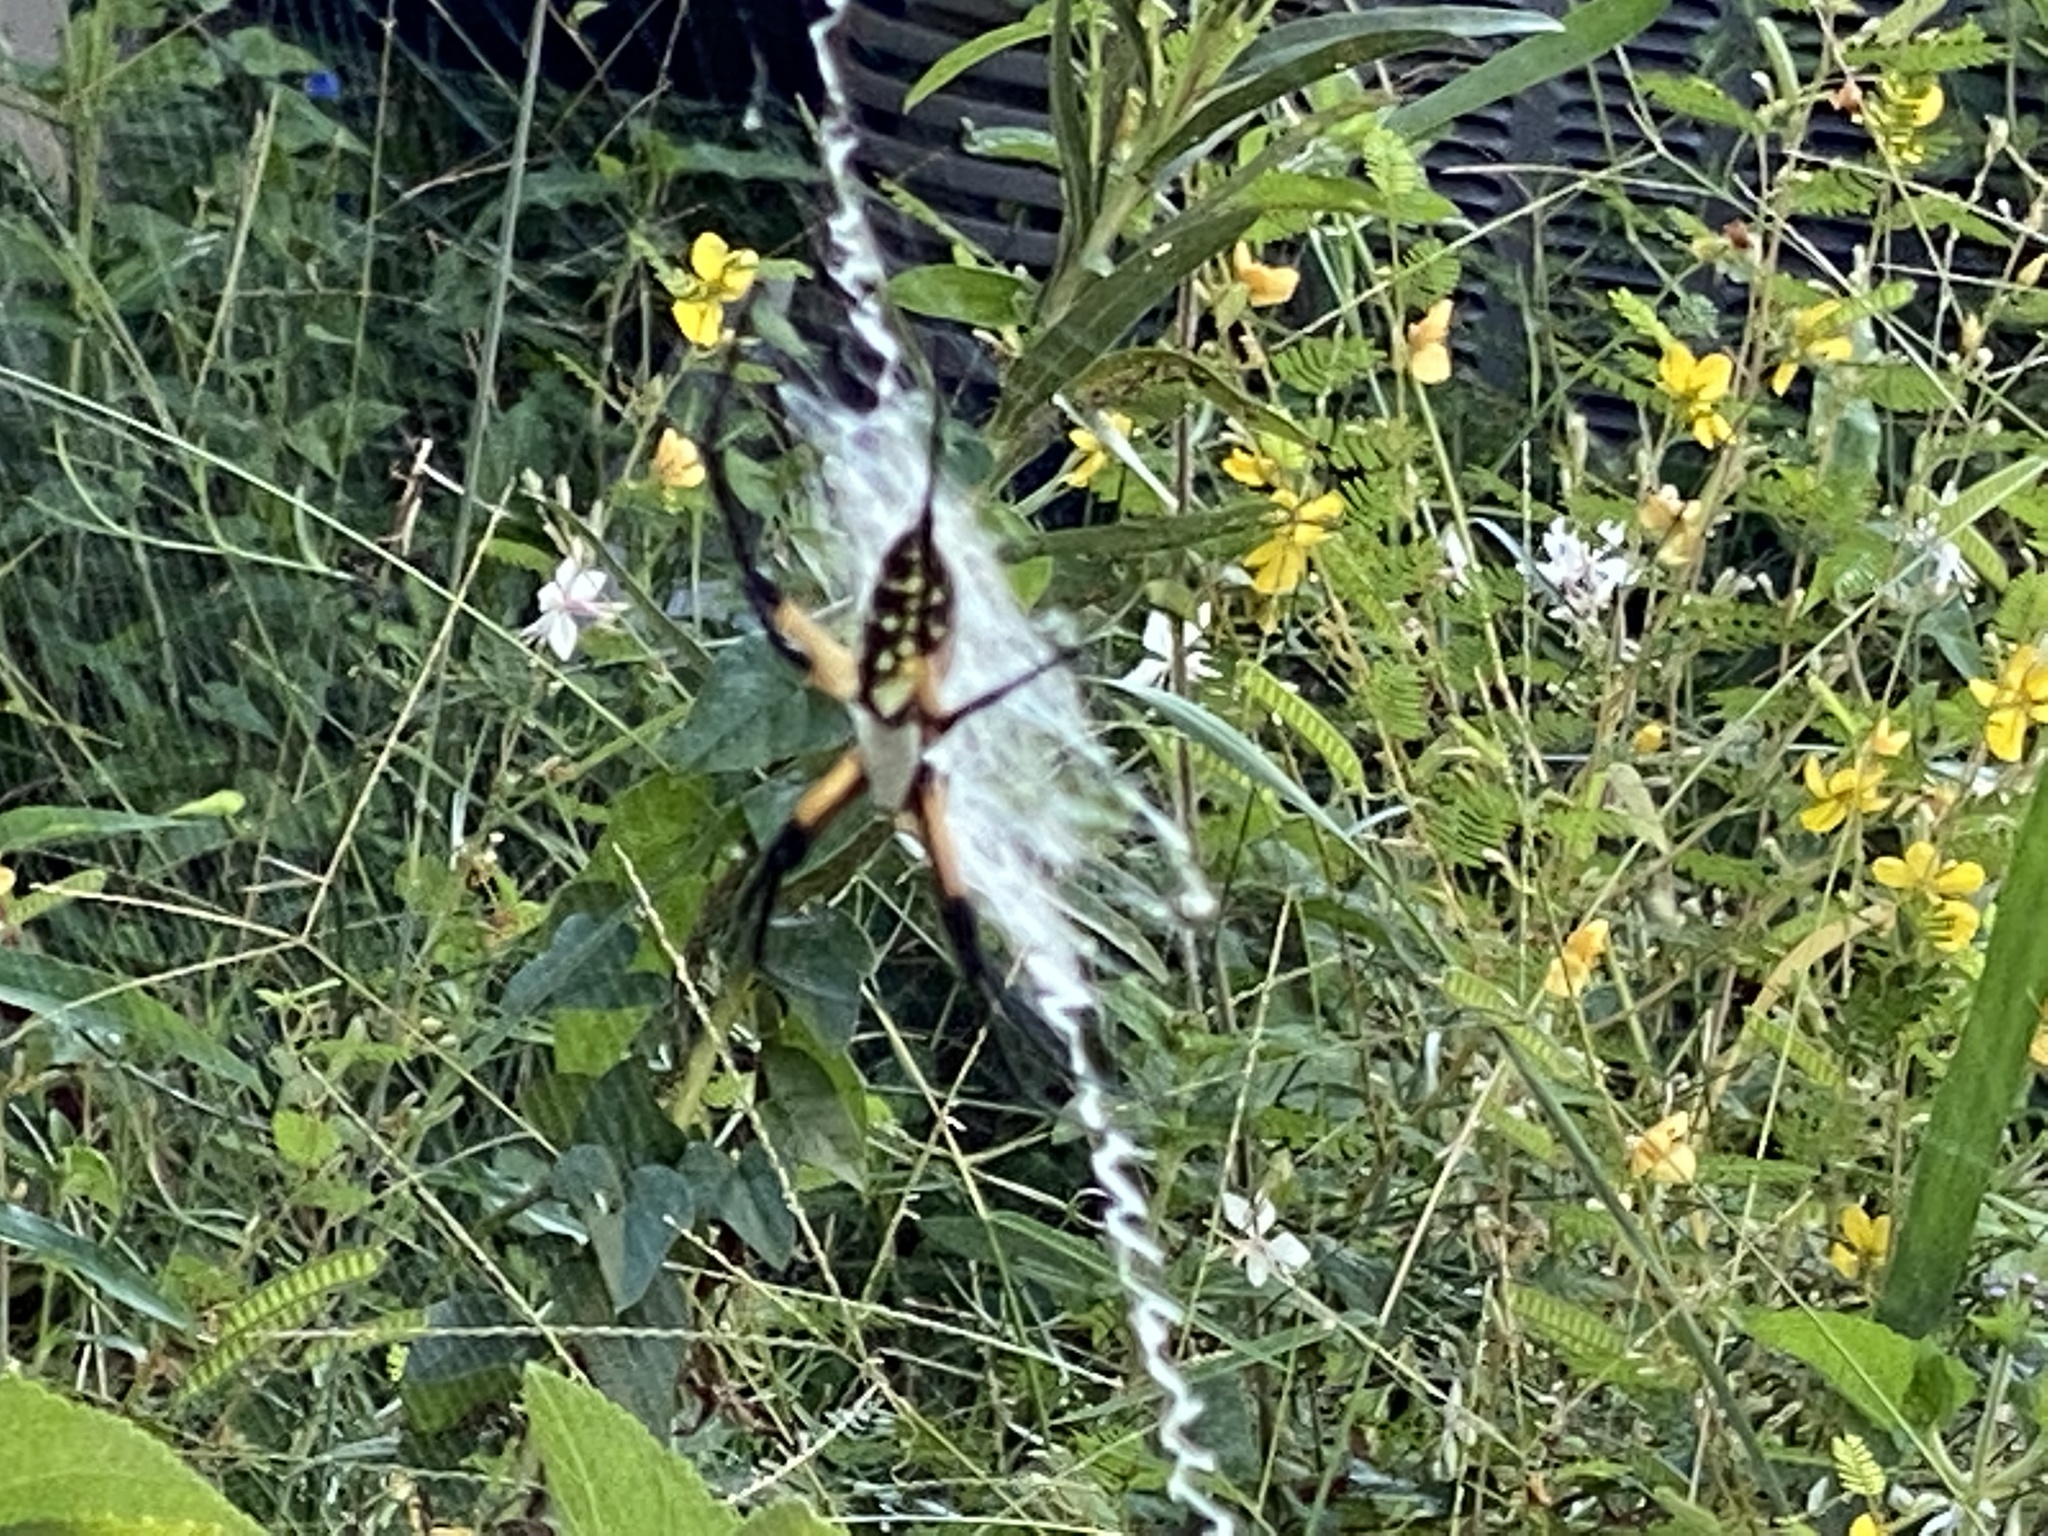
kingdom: Animalia
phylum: Arthropoda
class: Arachnida
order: Araneae
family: Araneidae
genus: Argiope
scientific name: Argiope aurantia
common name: Orb weavers
